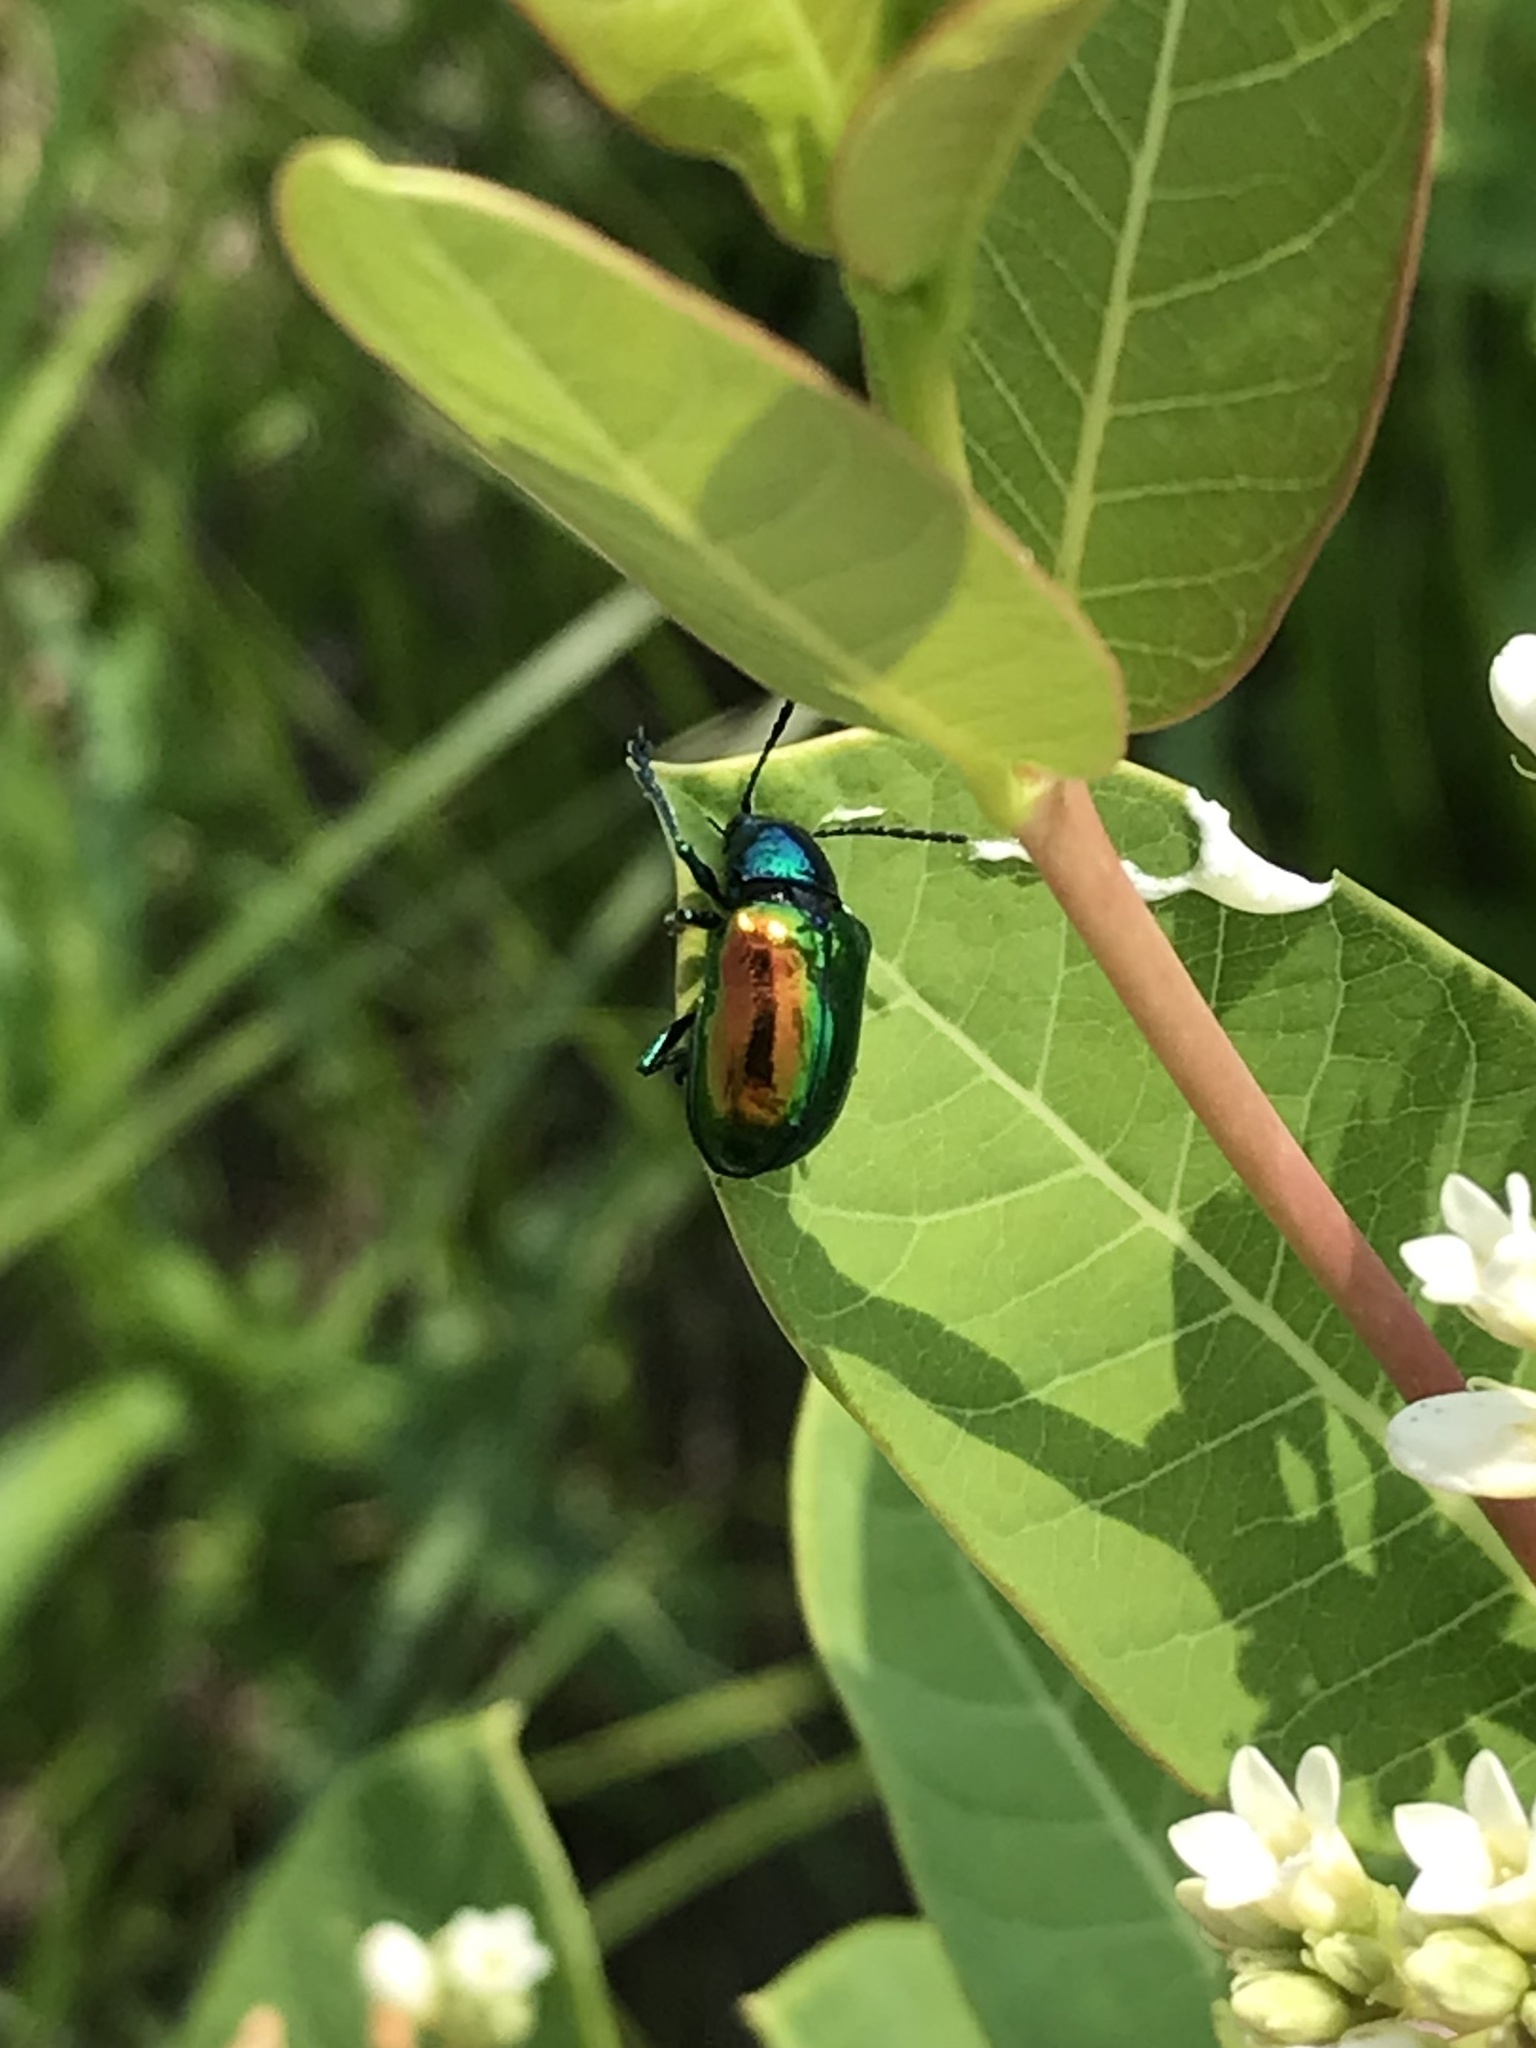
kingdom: Animalia
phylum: Arthropoda
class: Insecta
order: Coleoptera
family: Chrysomelidae
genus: Chrysochus
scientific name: Chrysochus auratus
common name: Dogbane leaf beetle
